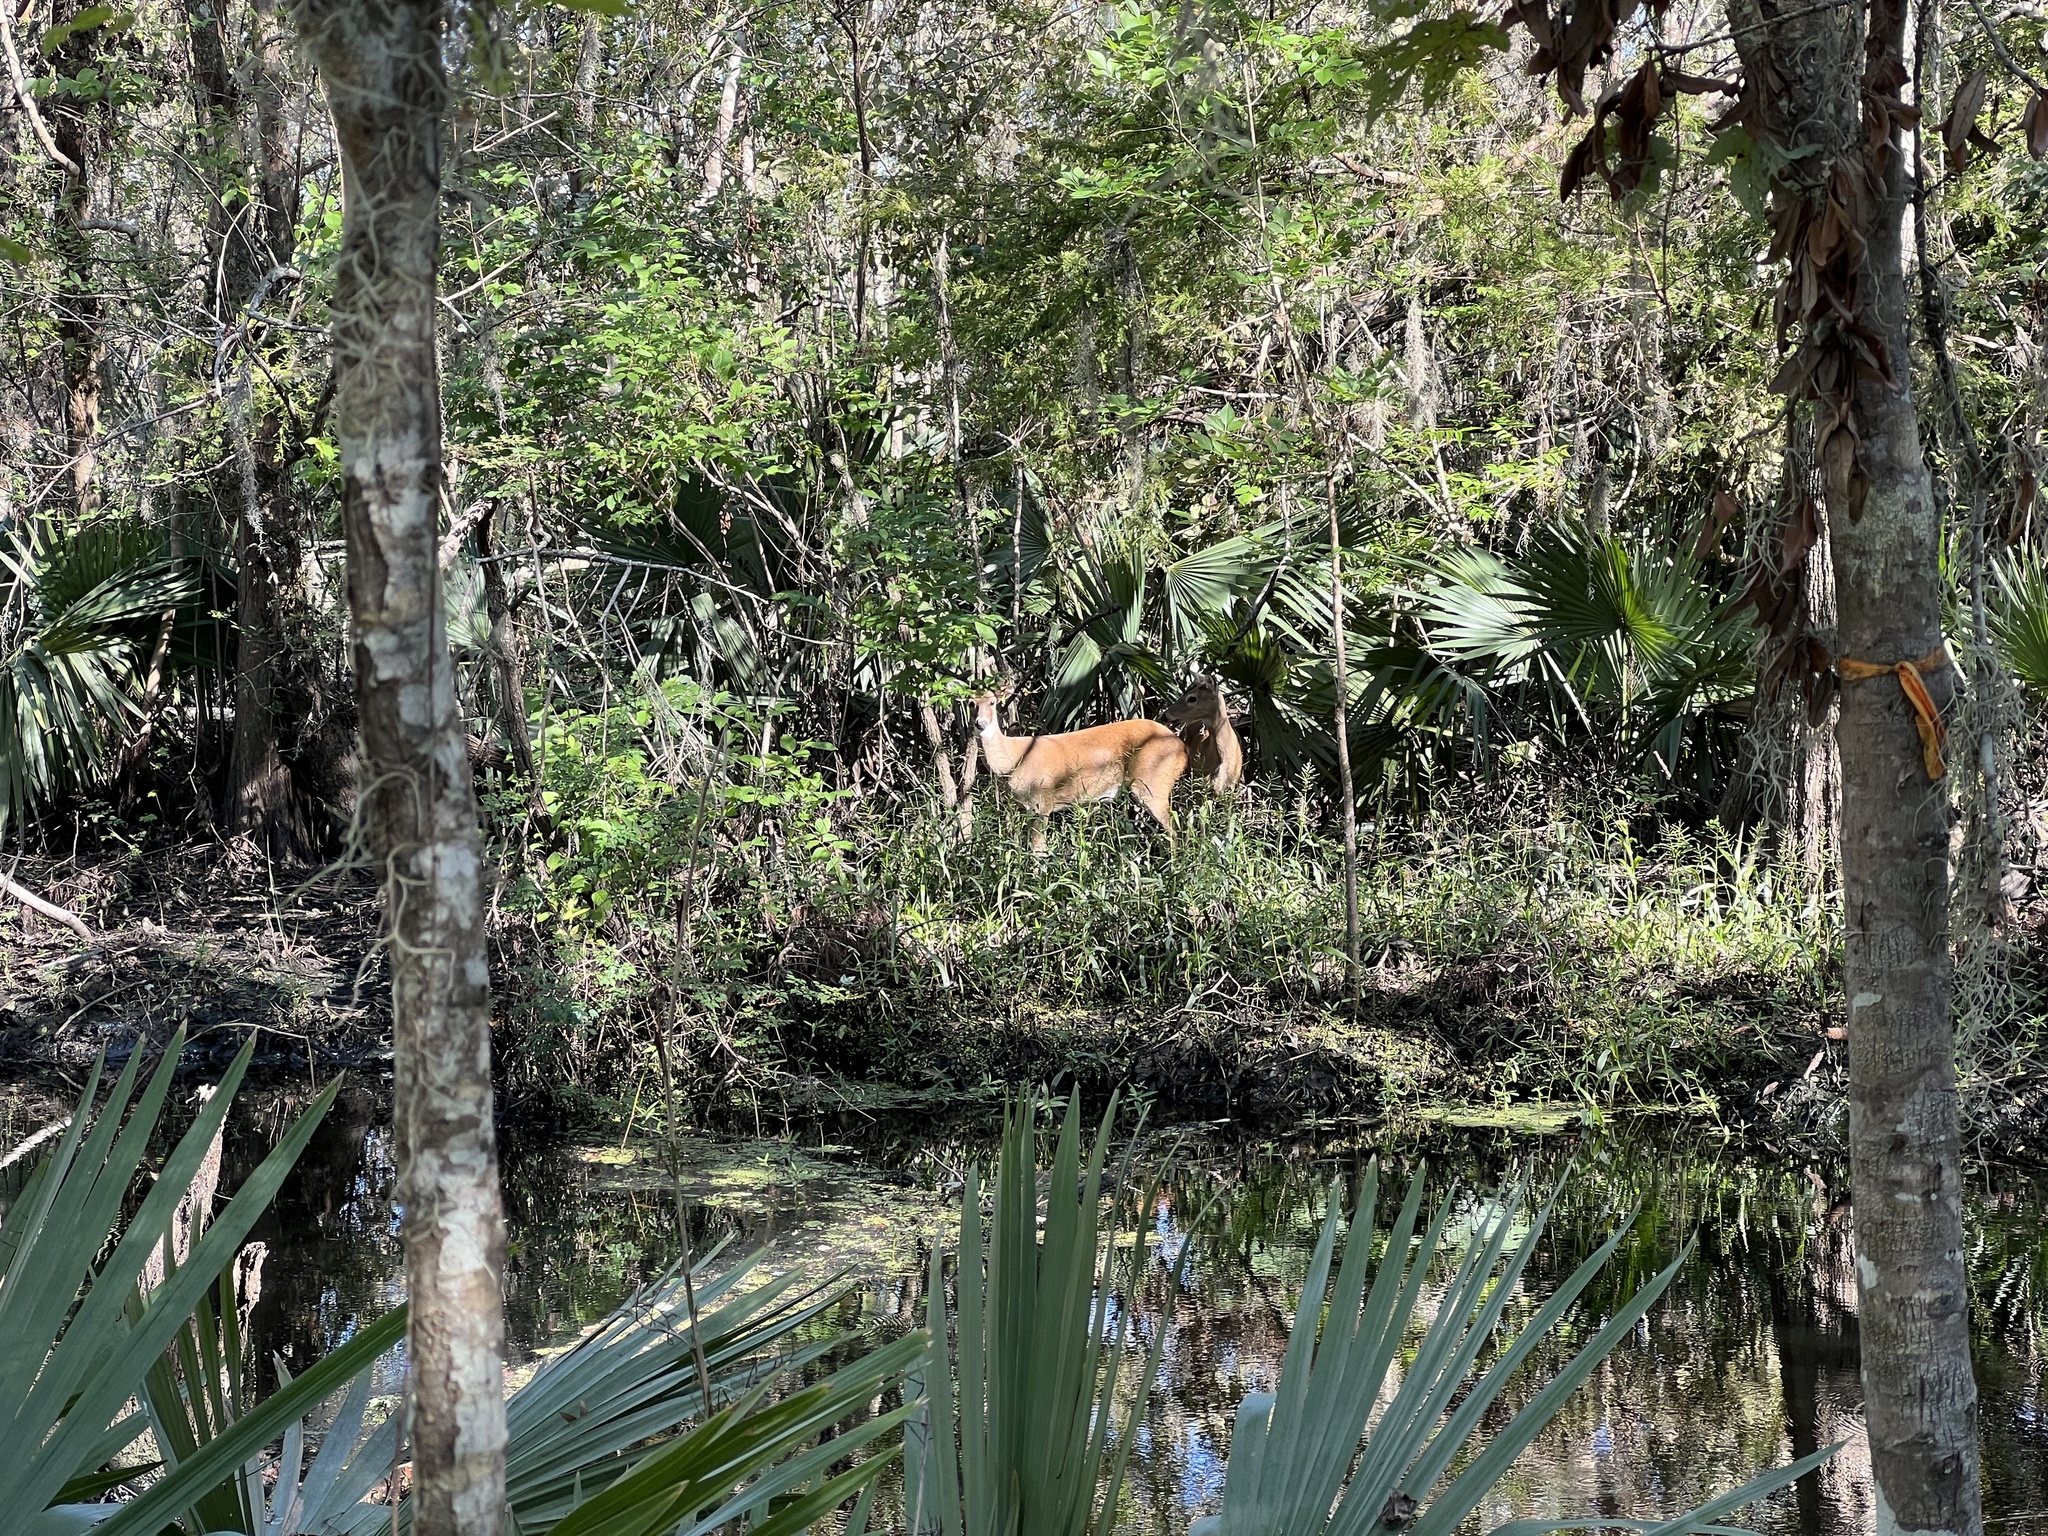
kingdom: Animalia
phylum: Chordata
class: Mammalia
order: Artiodactyla
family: Cervidae
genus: Odocoileus
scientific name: Odocoileus virginianus
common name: White-tailed deer
